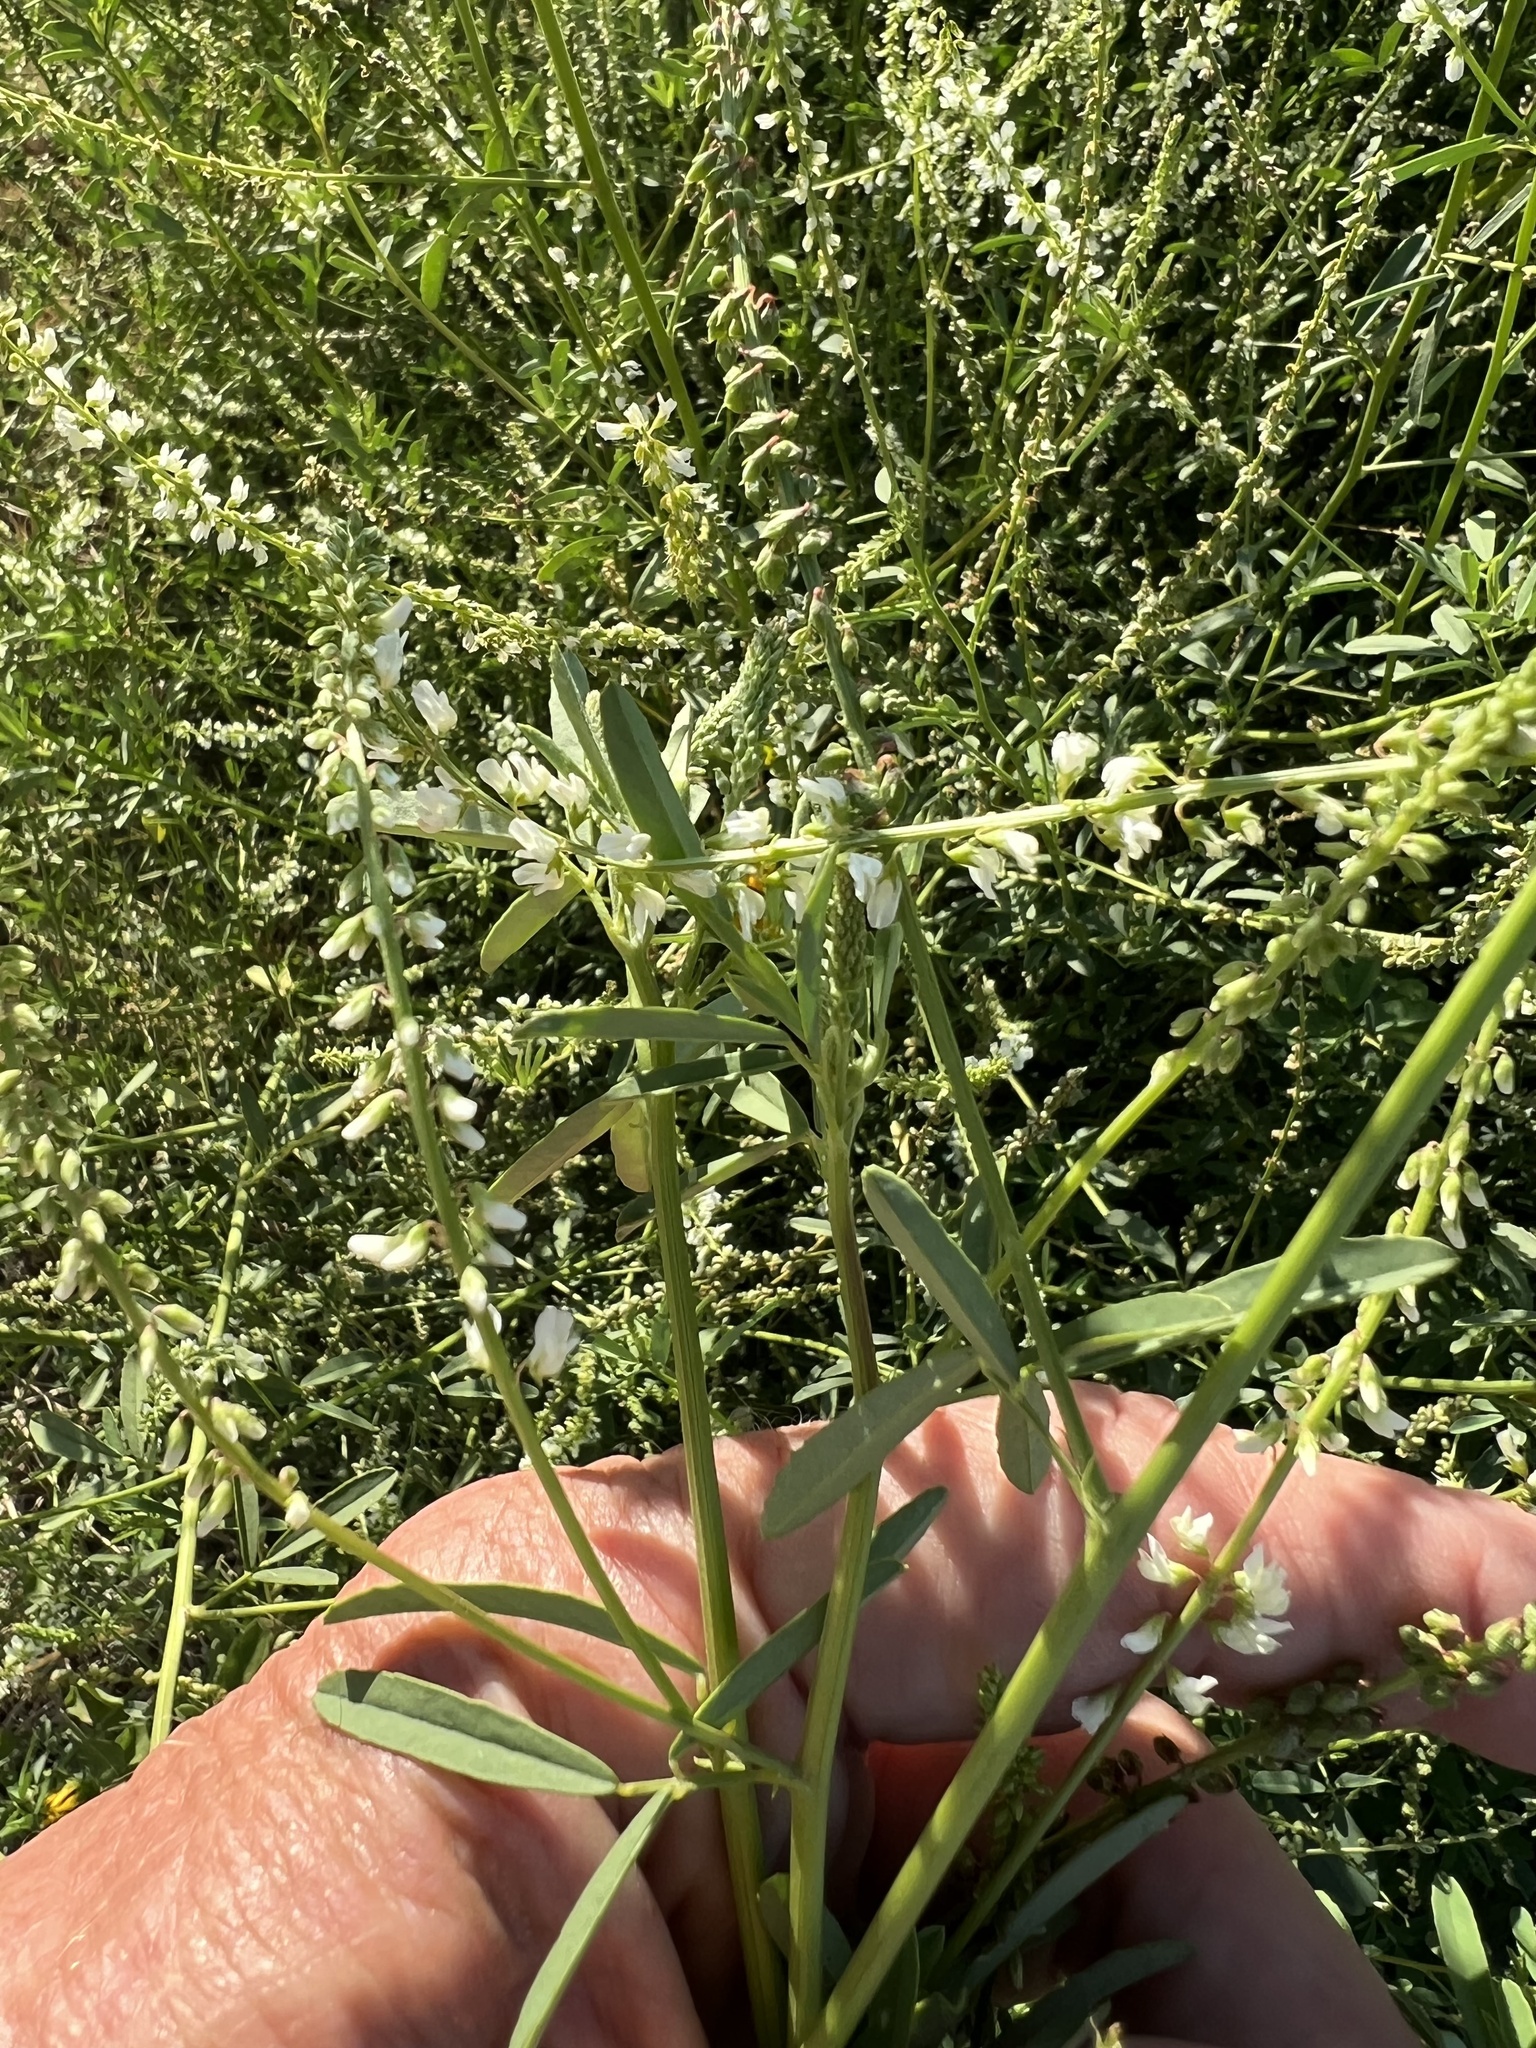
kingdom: Plantae
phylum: Tracheophyta
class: Magnoliopsida
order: Fabales
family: Fabaceae
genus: Melilotus
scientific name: Melilotus albus
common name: White melilot
